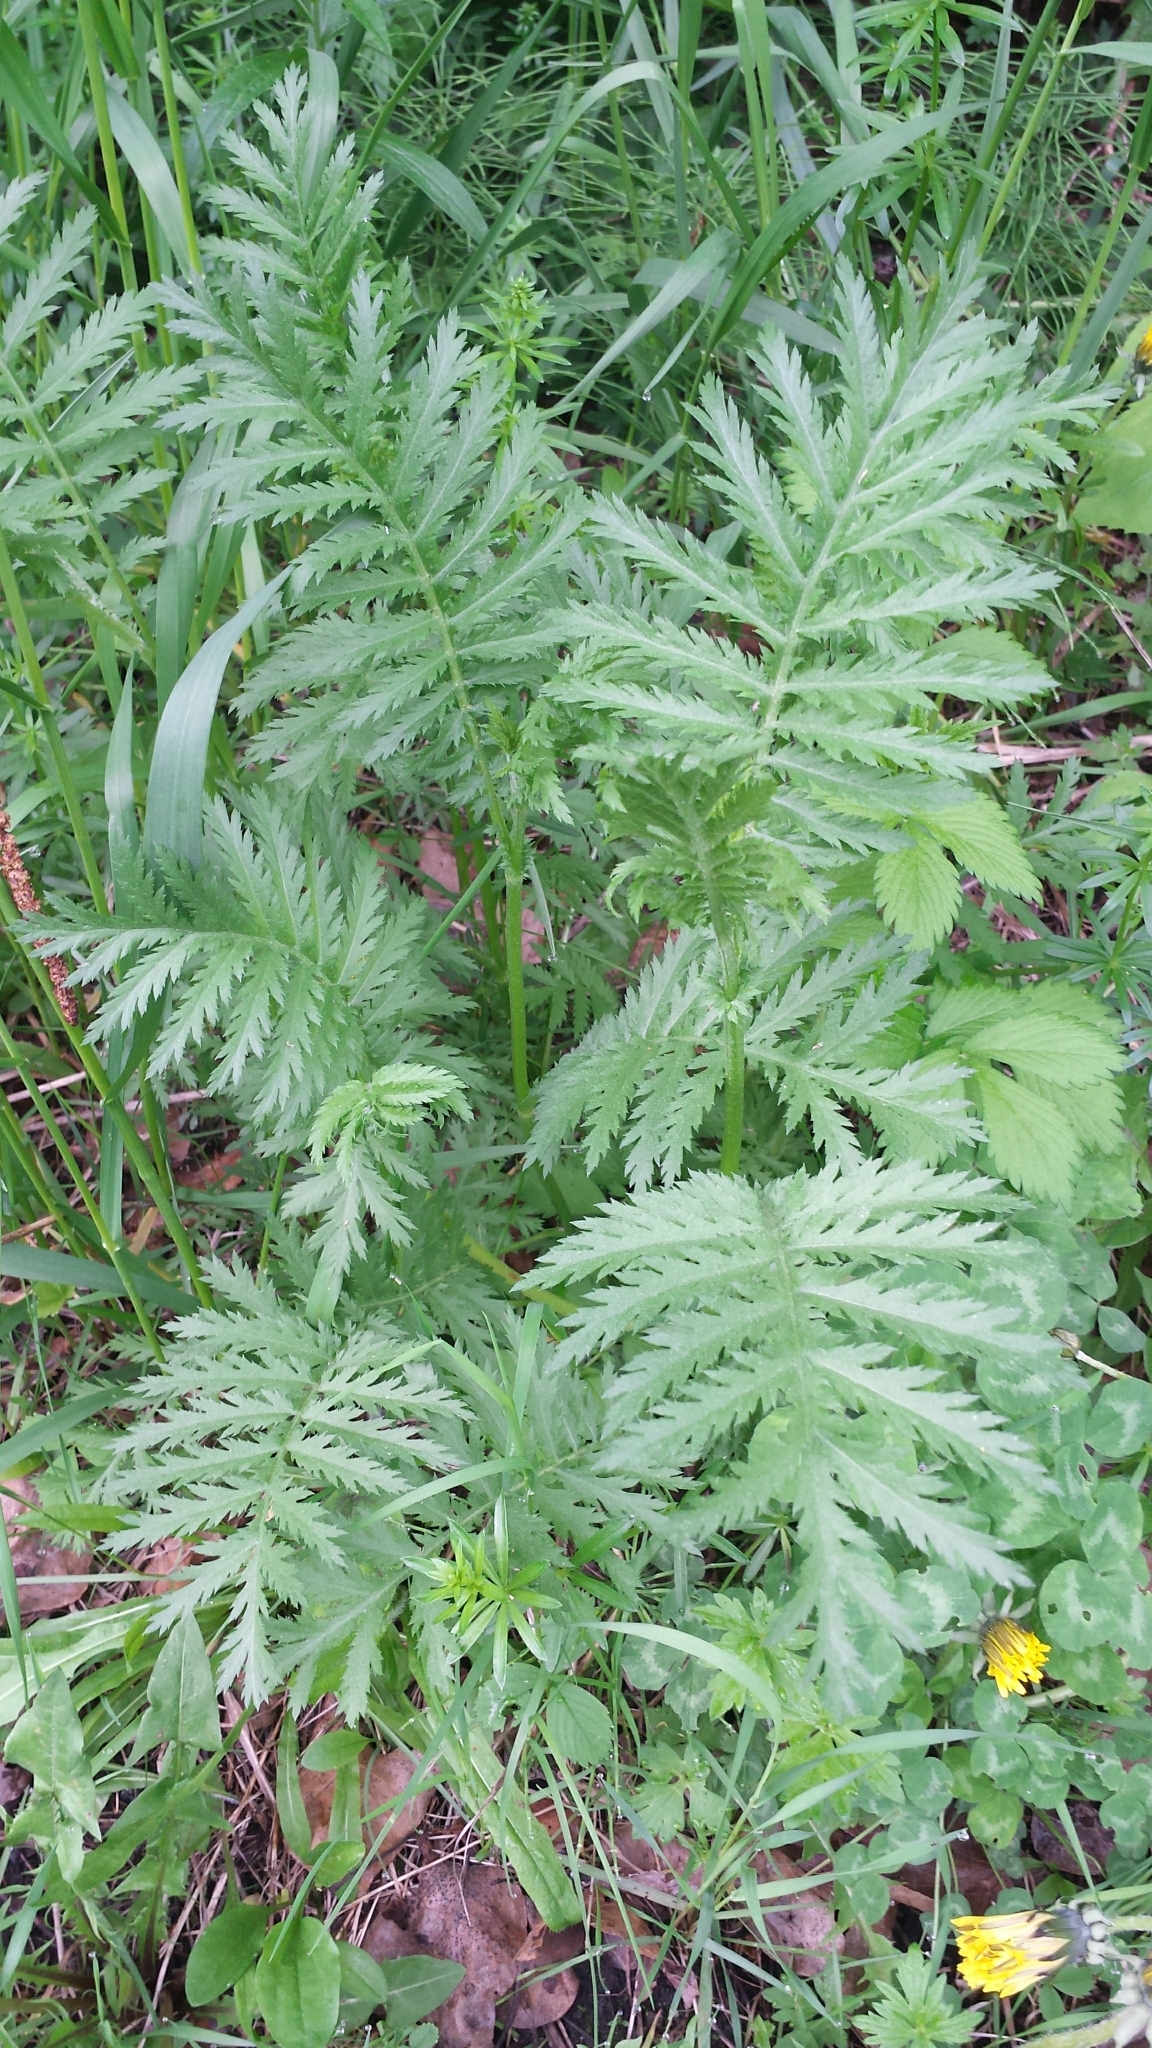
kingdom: Plantae
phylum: Tracheophyta
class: Magnoliopsida
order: Asterales
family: Asteraceae
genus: Tanacetum
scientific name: Tanacetum vulgare
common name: Common tansy
